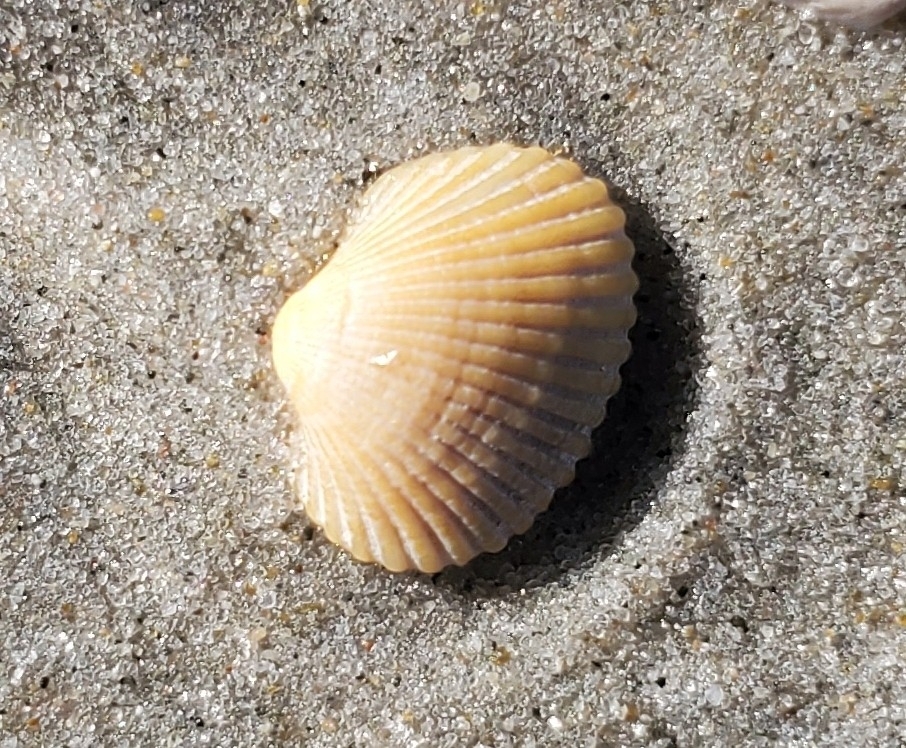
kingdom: Animalia
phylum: Mollusca
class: Bivalvia
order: Arcida
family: Arcidae
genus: Anadara
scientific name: Anadara transversa
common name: Transverse ark
